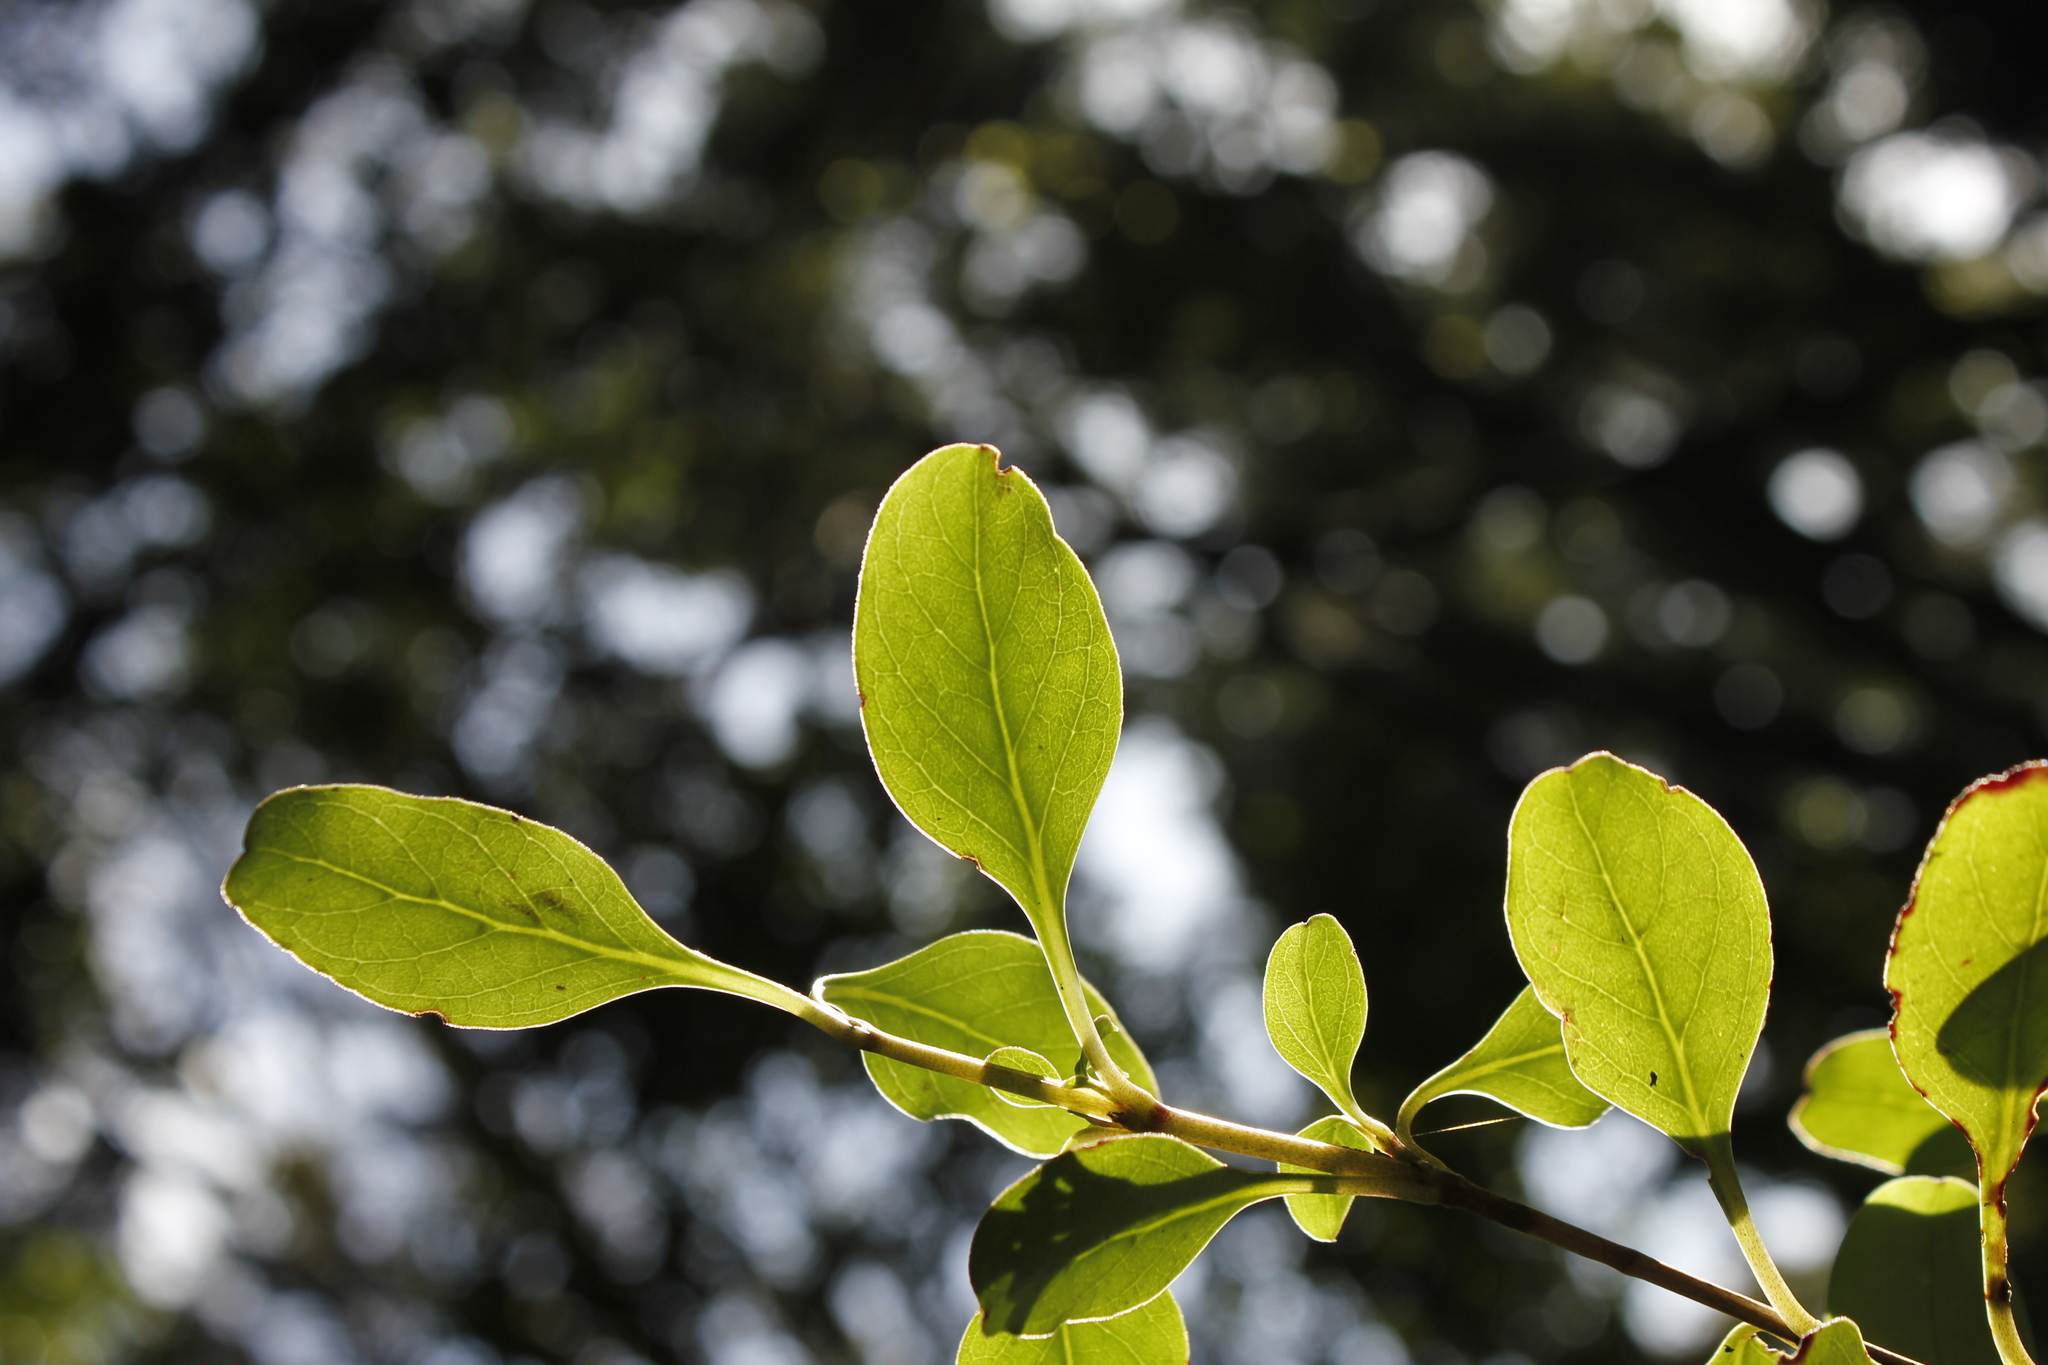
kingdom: Plantae
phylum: Tracheophyta
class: Magnoliopsida
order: Gentianales
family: Rubiaceae
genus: Coprosma
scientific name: Coprosma foetidissima
